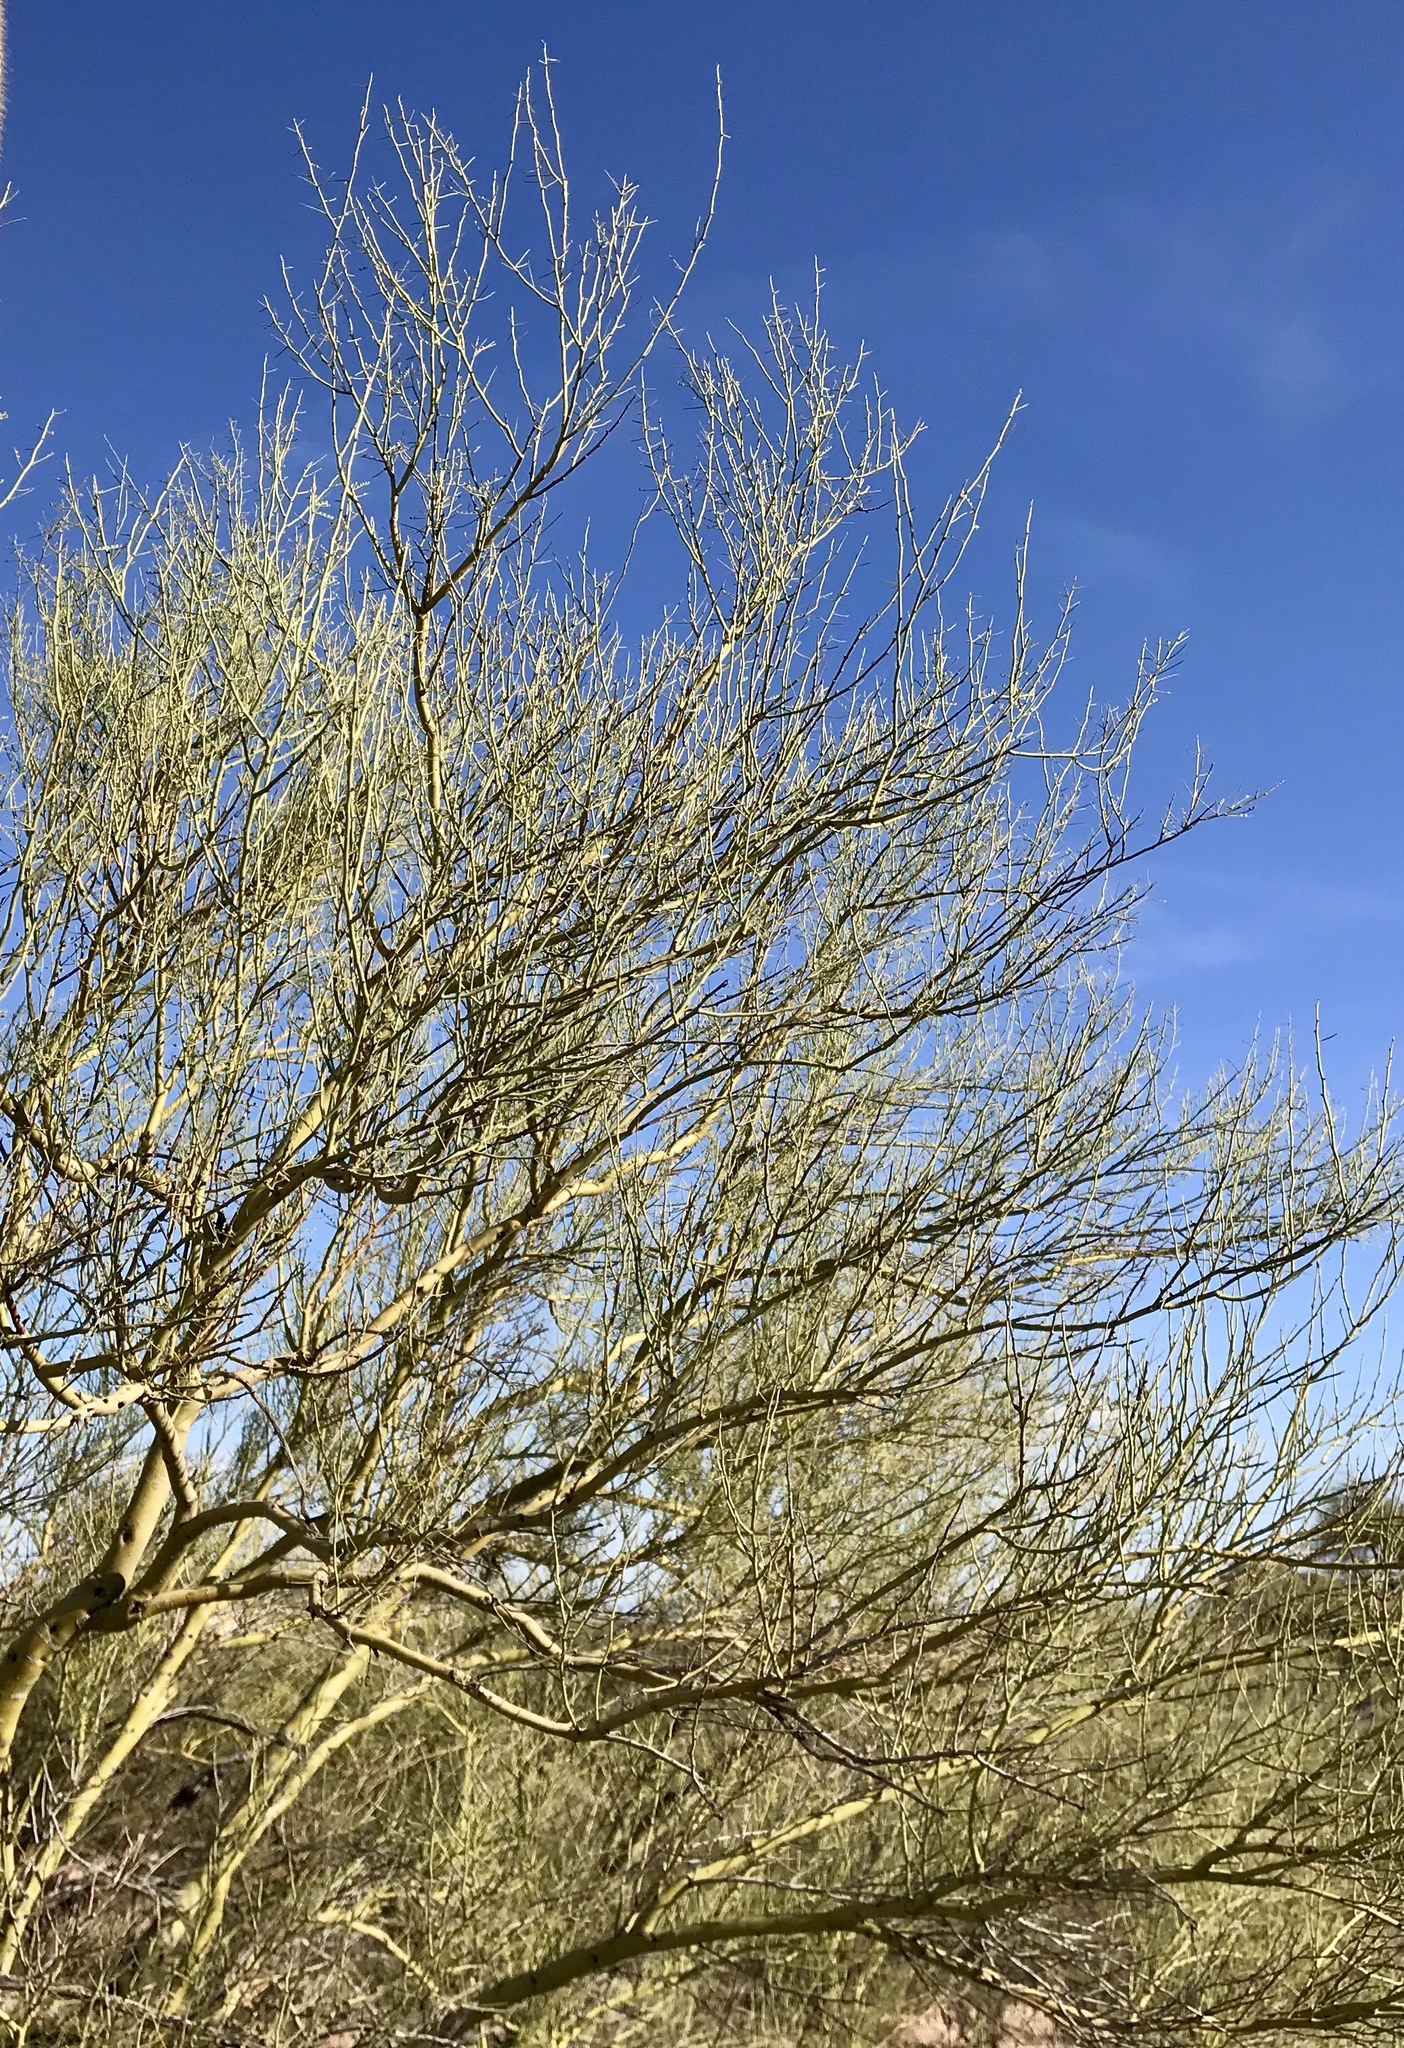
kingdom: Plantae
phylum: Tracheophyta
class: Magnoliopsida
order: Fabales
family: Fabaceae
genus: Parkinsonia
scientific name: Parkinsonia microphylla
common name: Yellow paloverde
